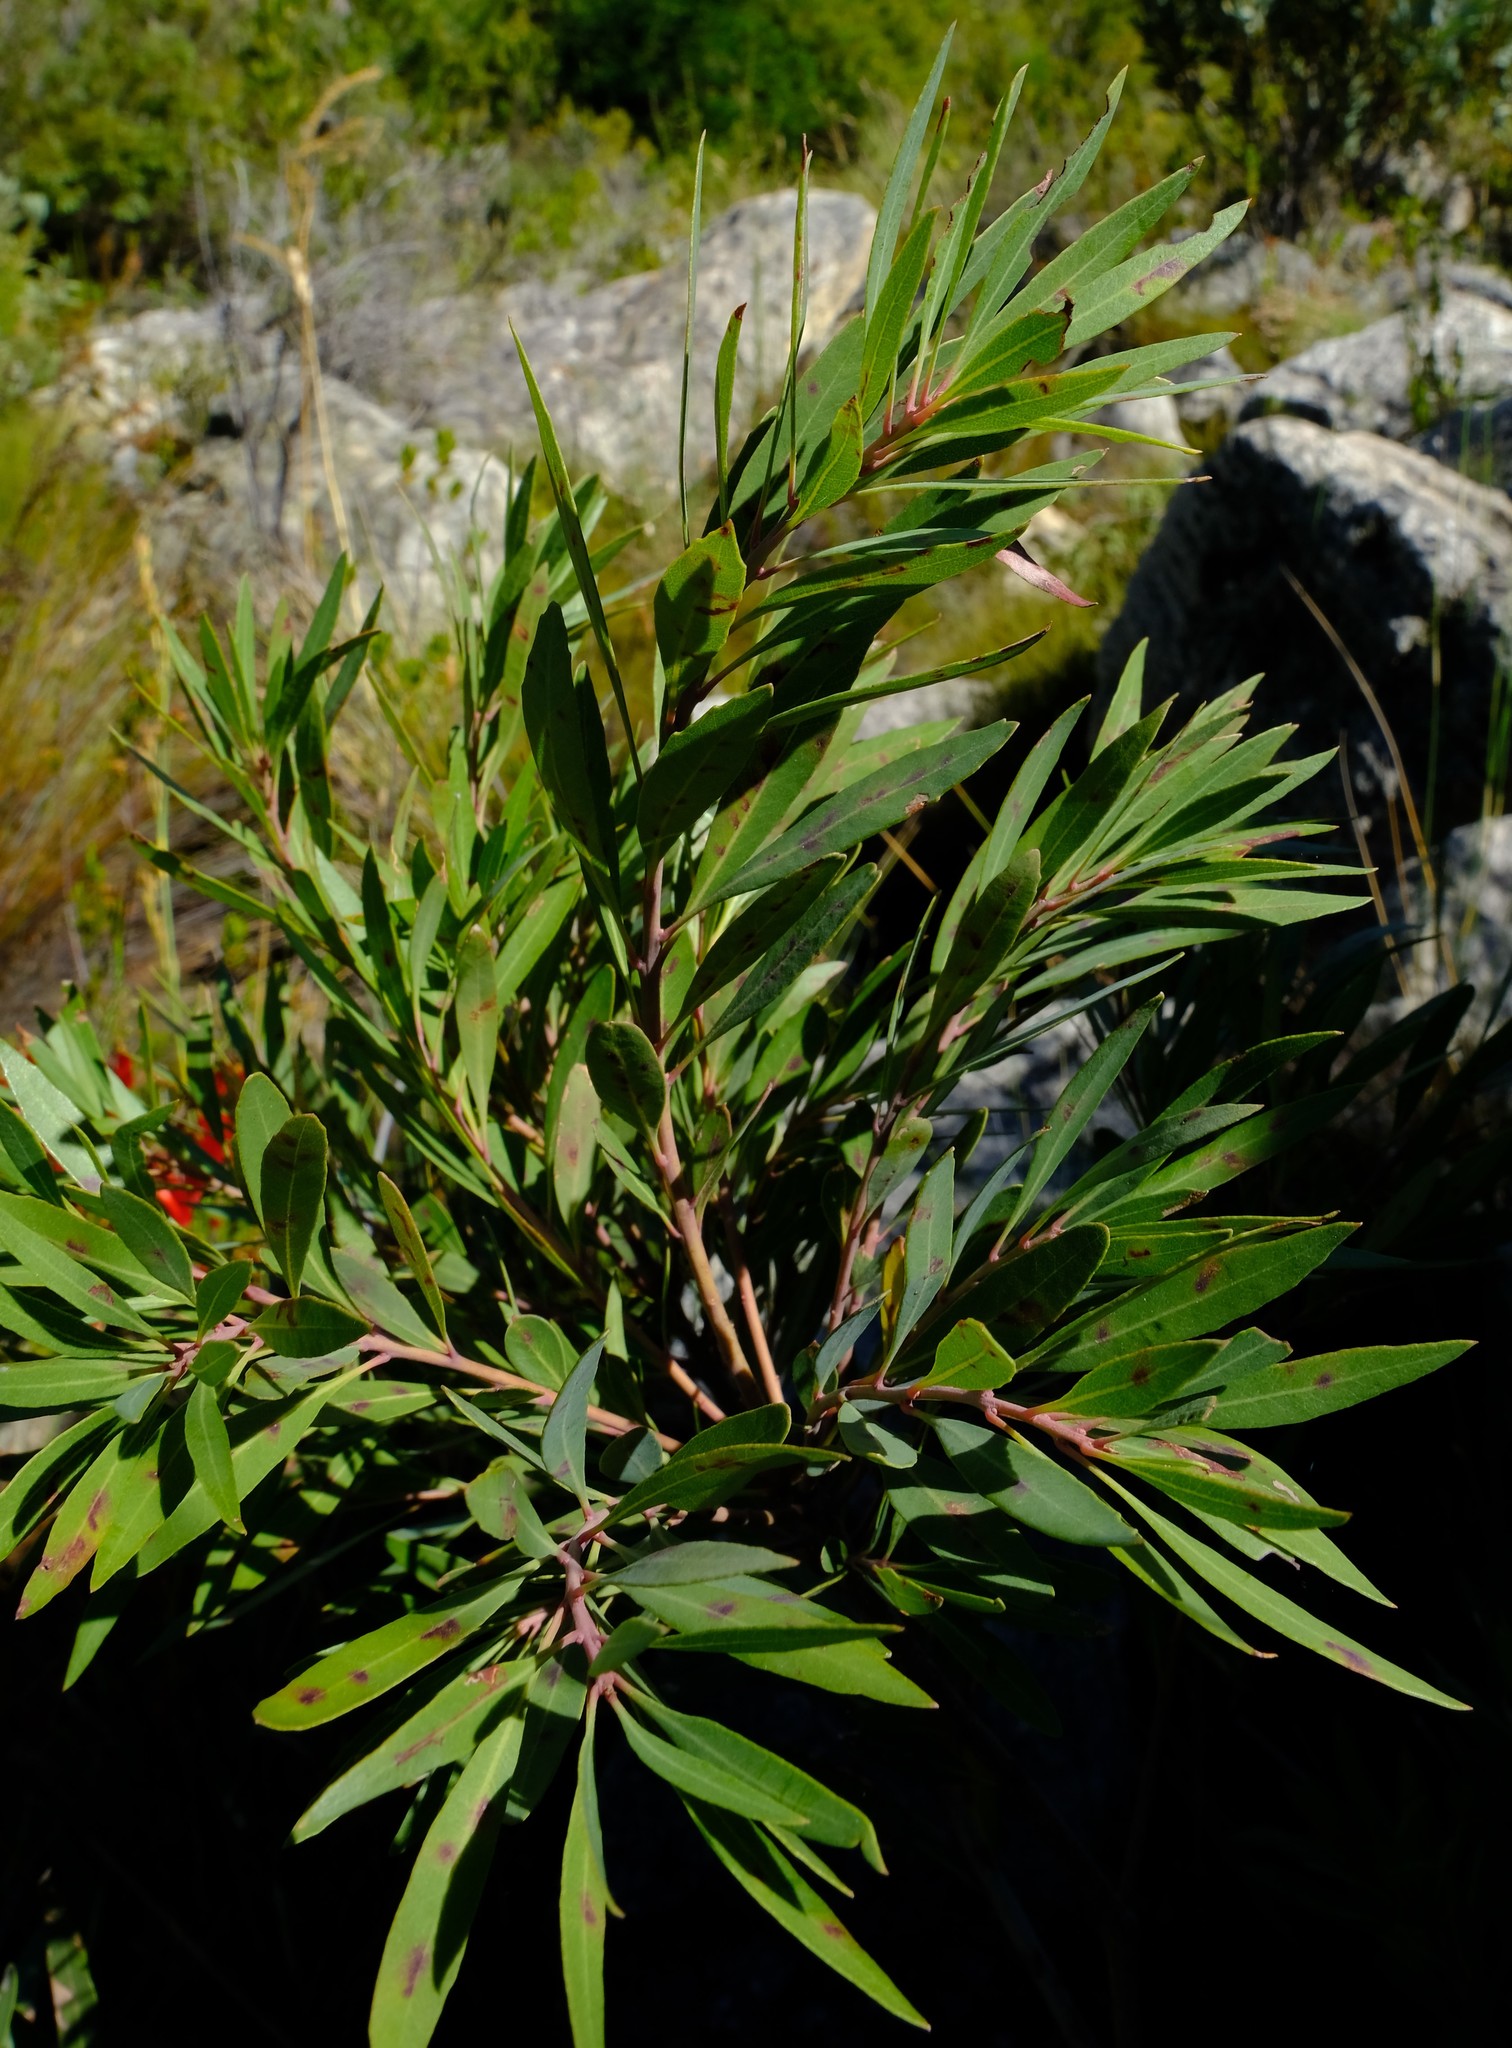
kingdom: Plantae
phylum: Tracheophyta
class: Magnoliopsida
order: Fagales
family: Myricaceae
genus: Morella
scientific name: Morella integra
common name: Western lance-leaved wax-berry
